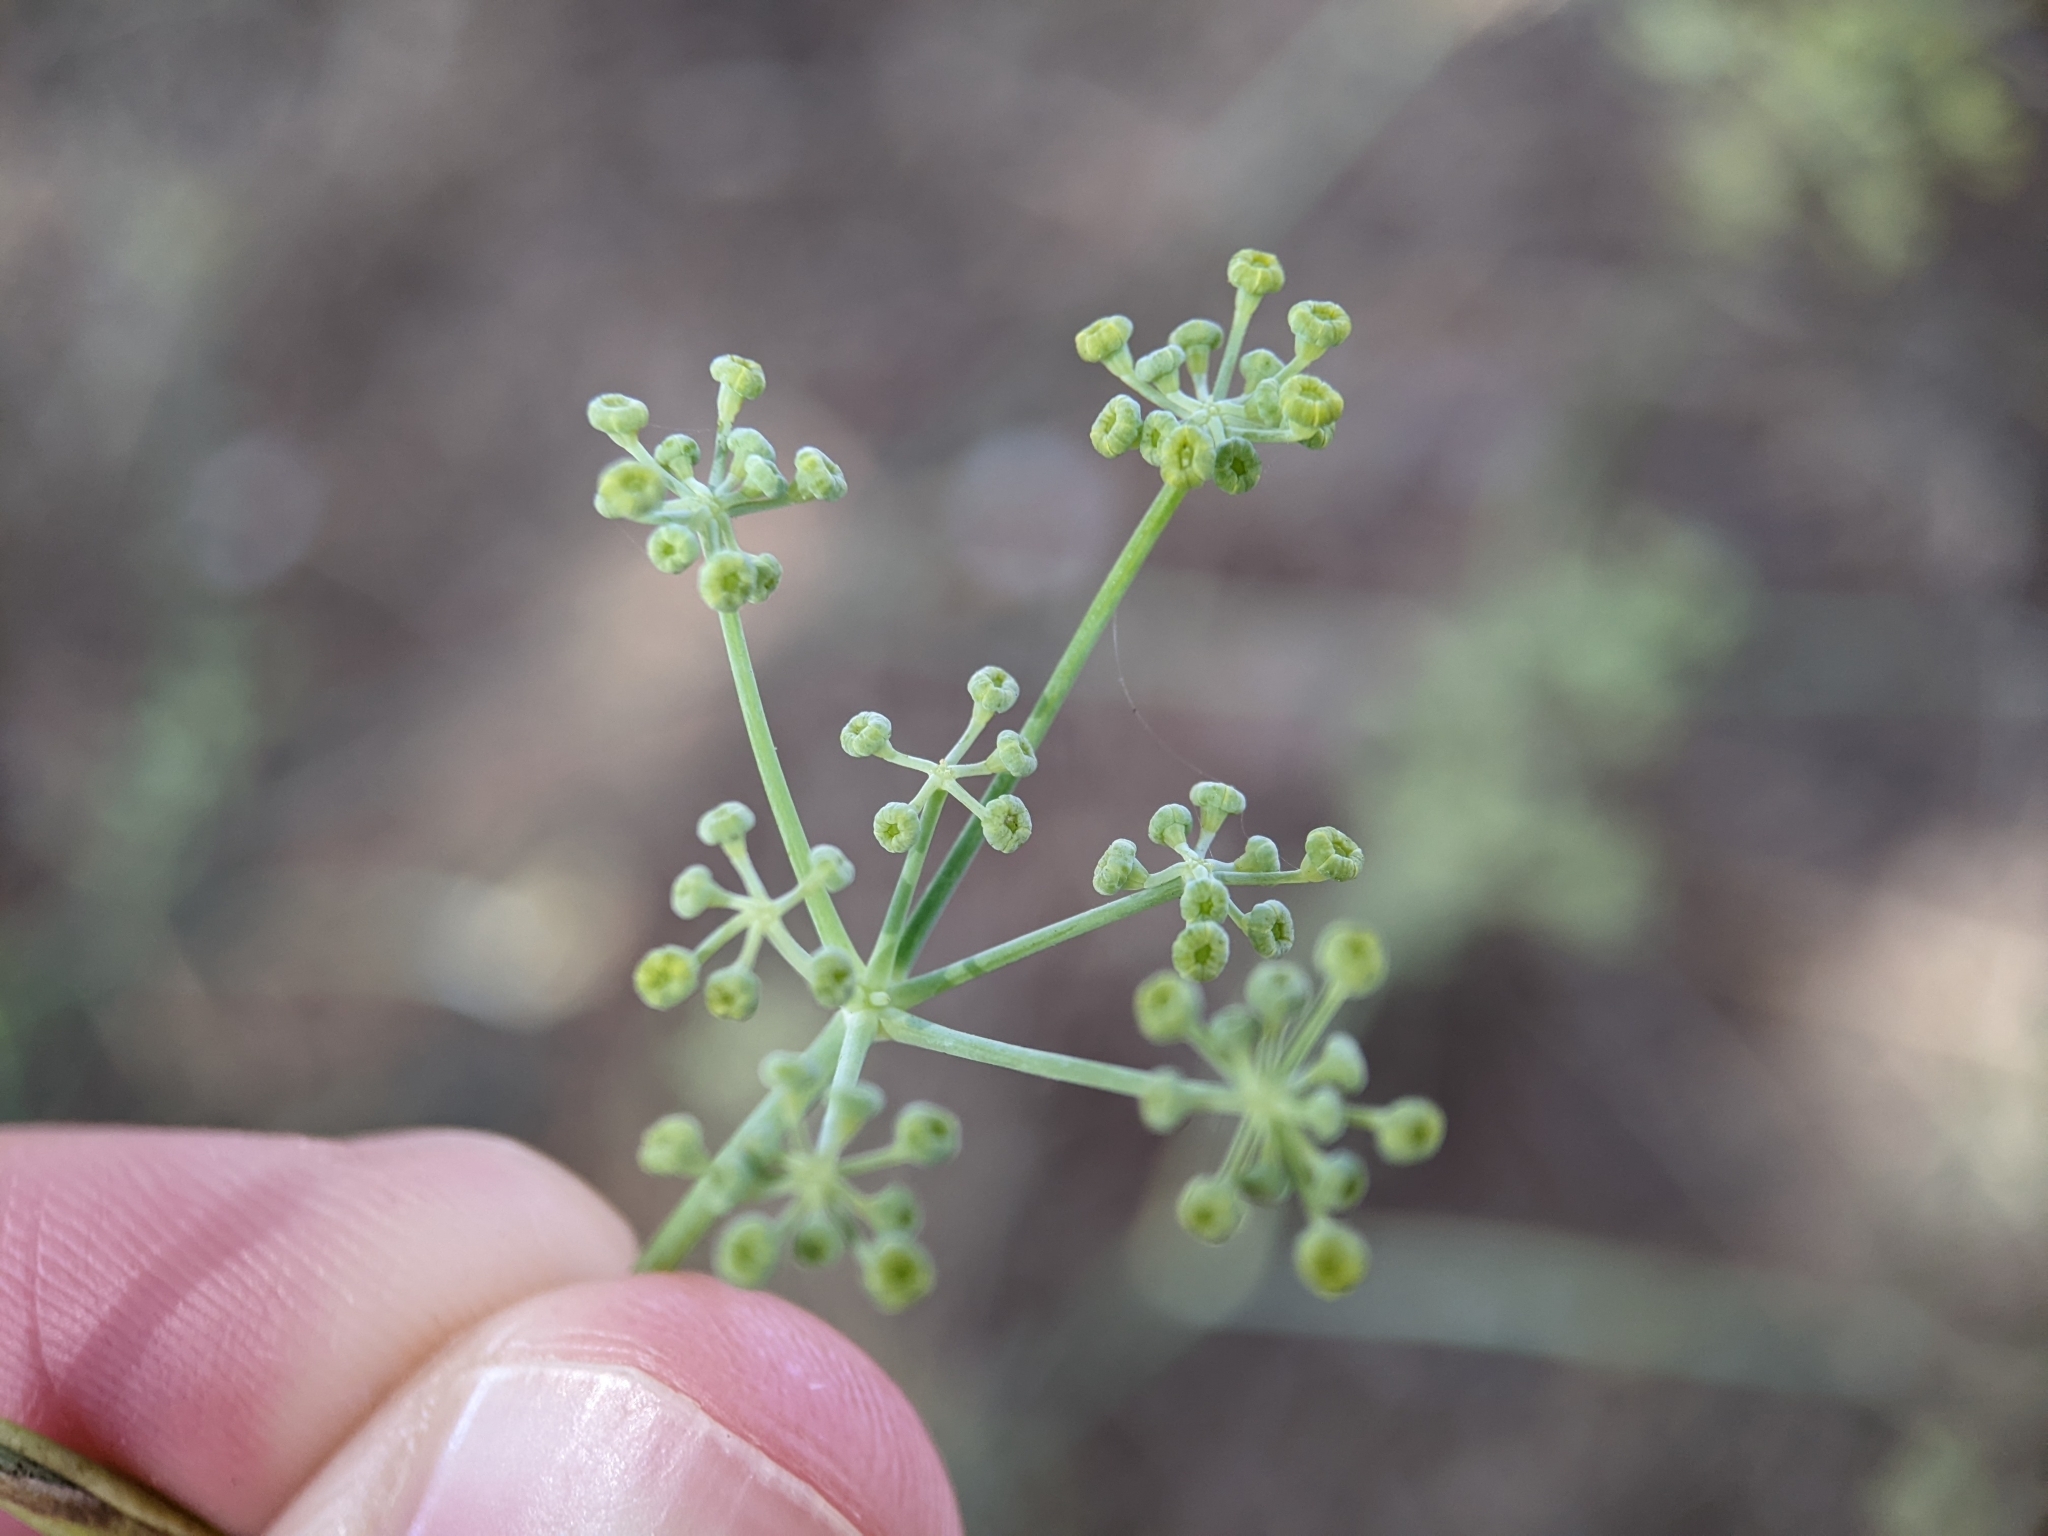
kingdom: Plantae
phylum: Tracheophyta
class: Magnoliopsida
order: Apiales
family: Apiaceae
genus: Foeniculum
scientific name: Foeniculum vulgare
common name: Fennel
